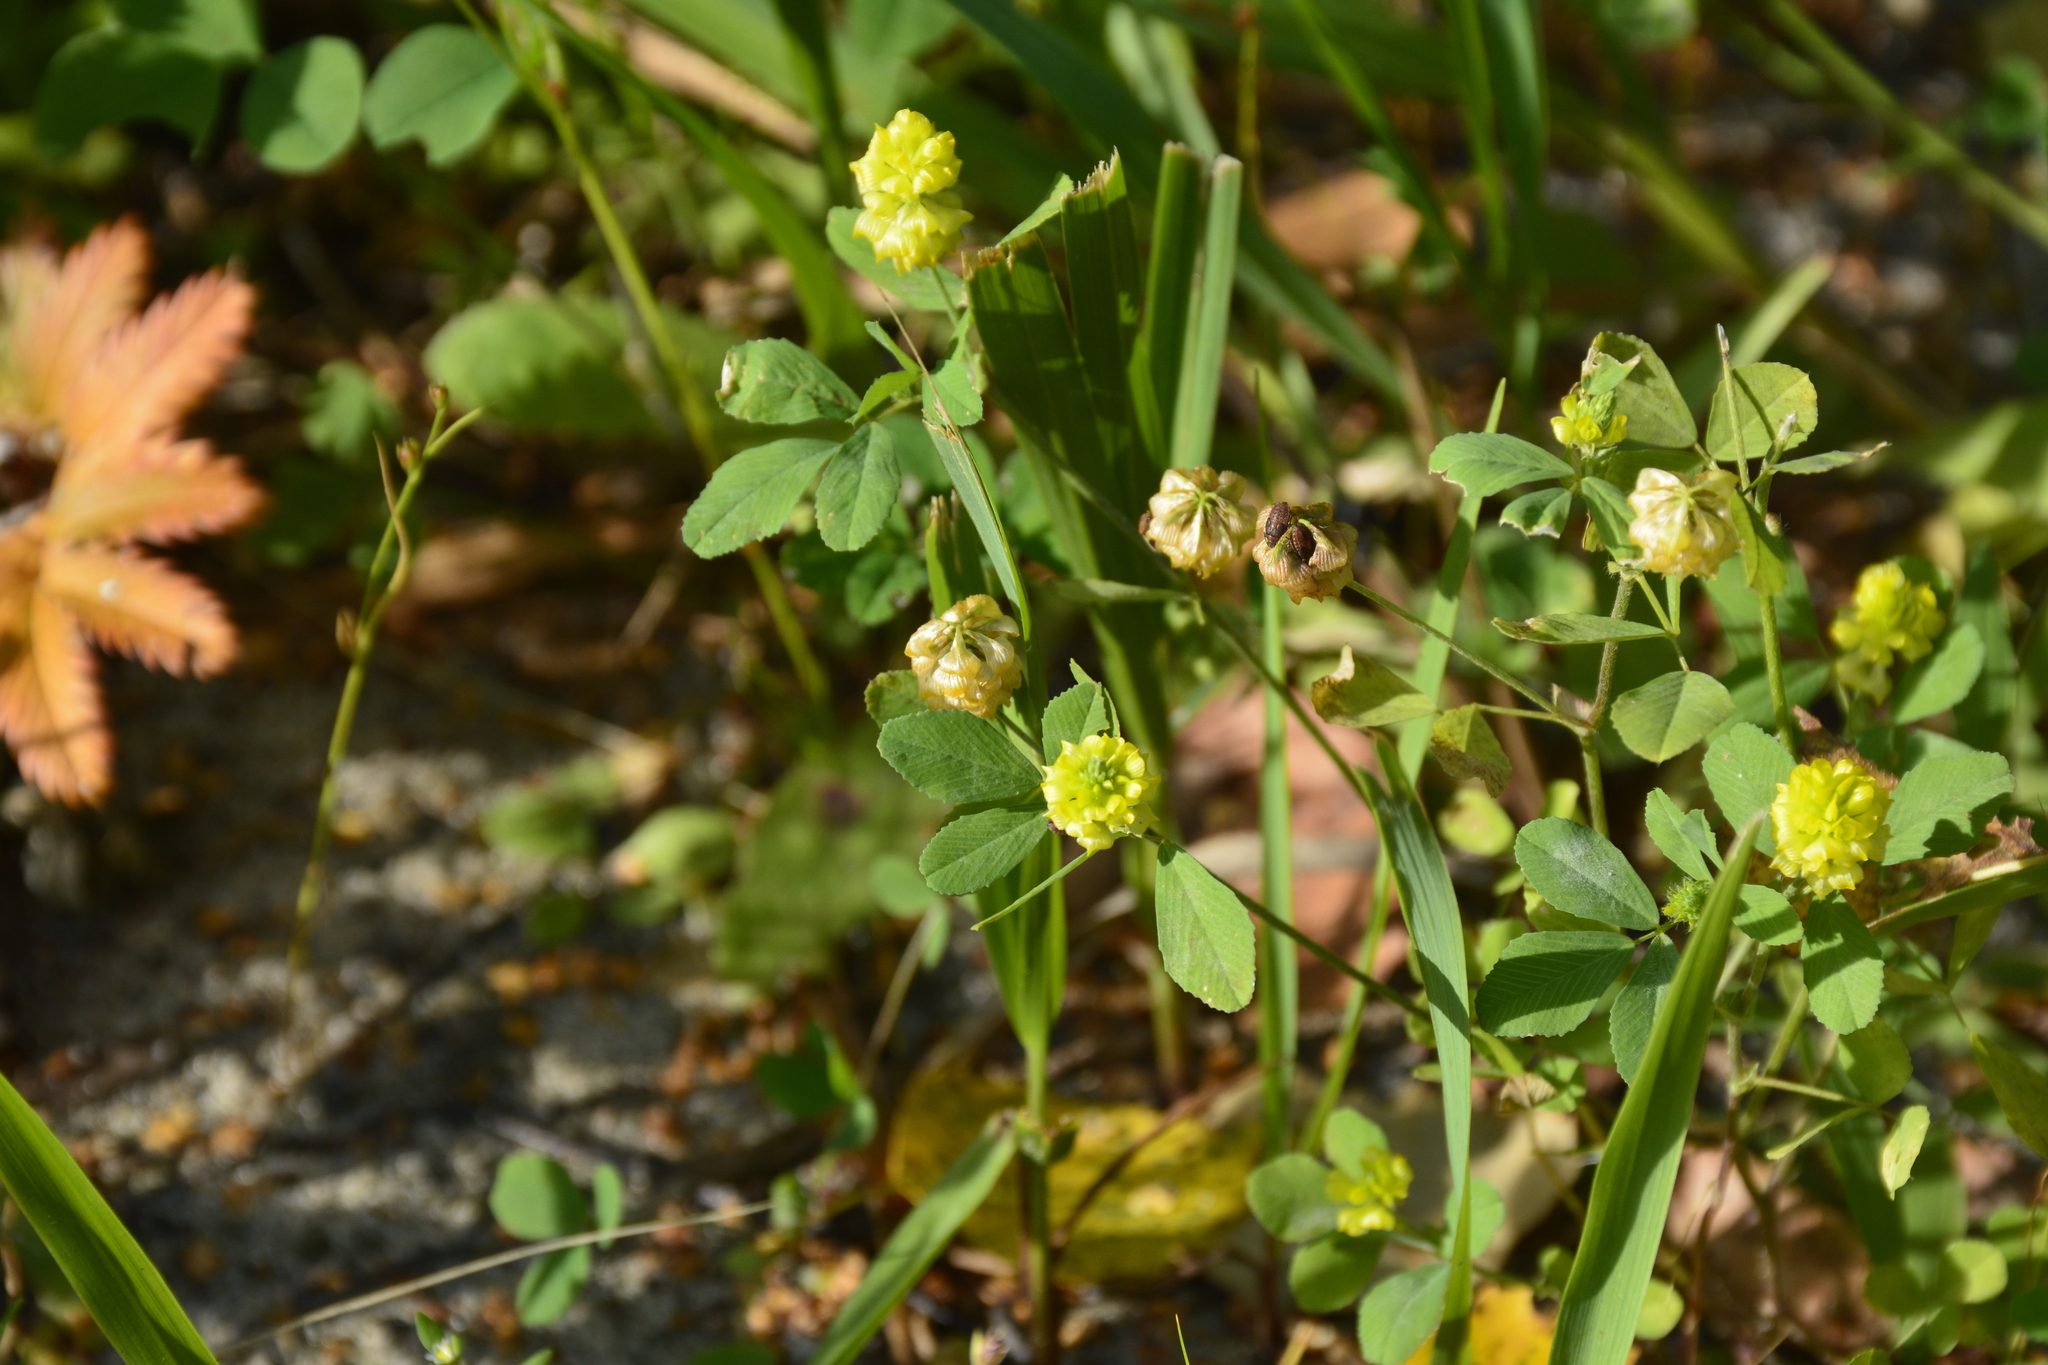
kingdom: Plantae
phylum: Tracheophyta
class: Magnoliopsida
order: Fabales
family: Fabaceae
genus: Trifolium
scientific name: Trifolium campestre
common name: Field clover
